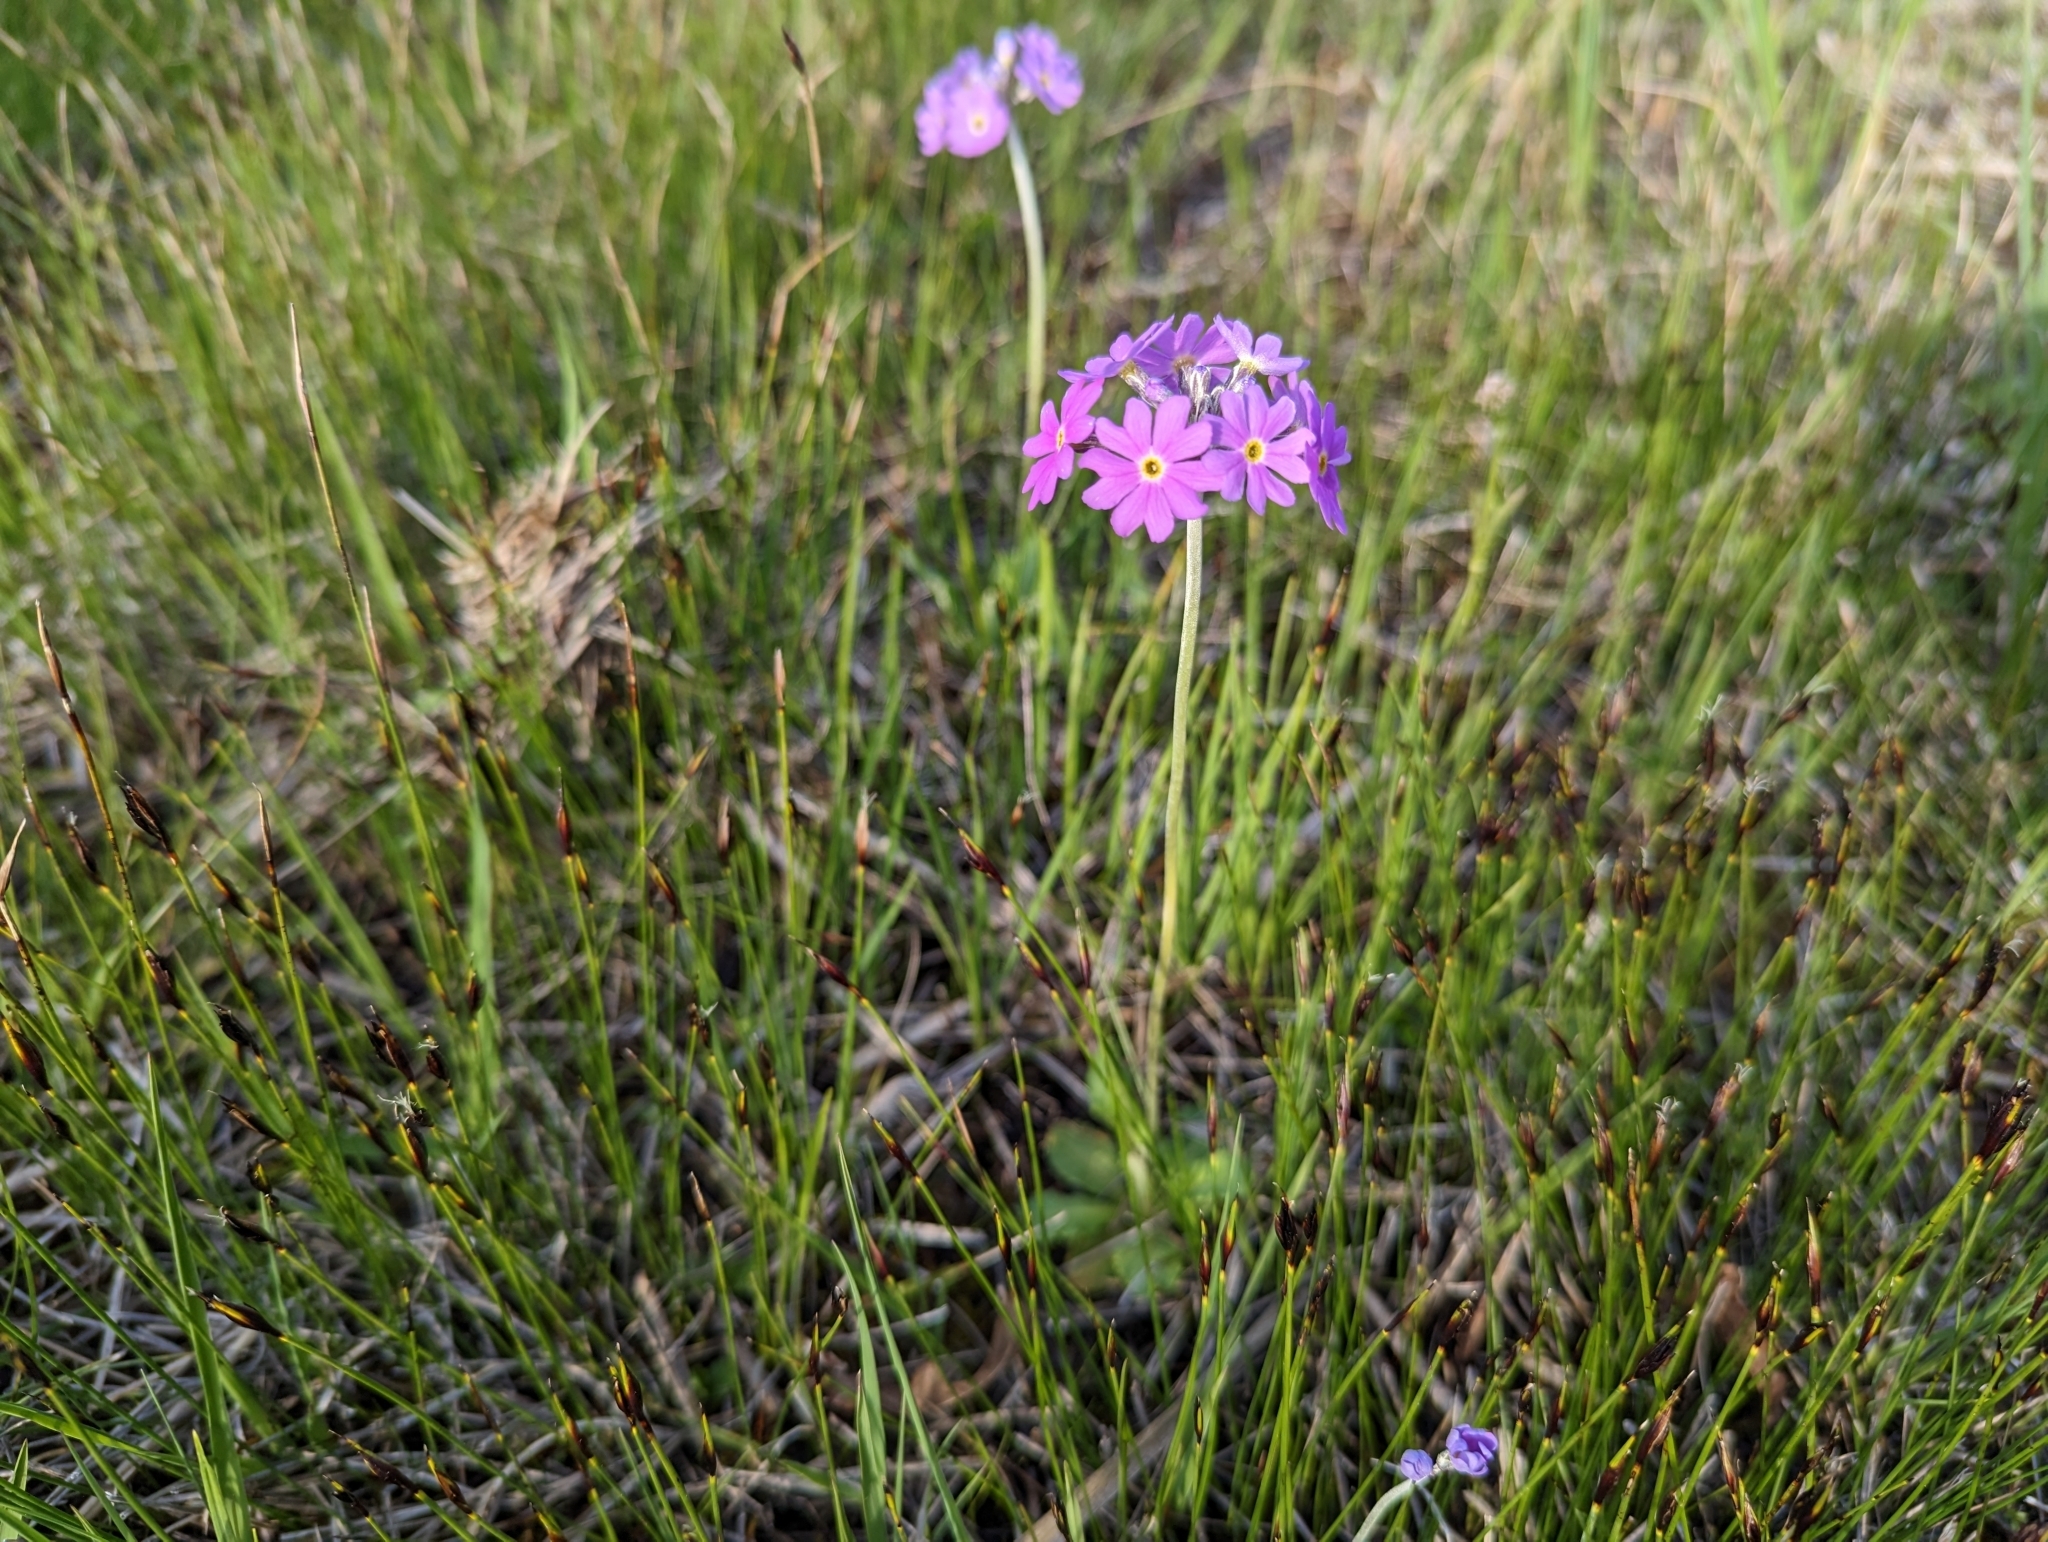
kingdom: Plantae
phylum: Tracheophyta
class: Magnoliopsida
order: Ericales
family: Primulaceae
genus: Primula
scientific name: Primula farinosa
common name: Bird's-eye primrose
